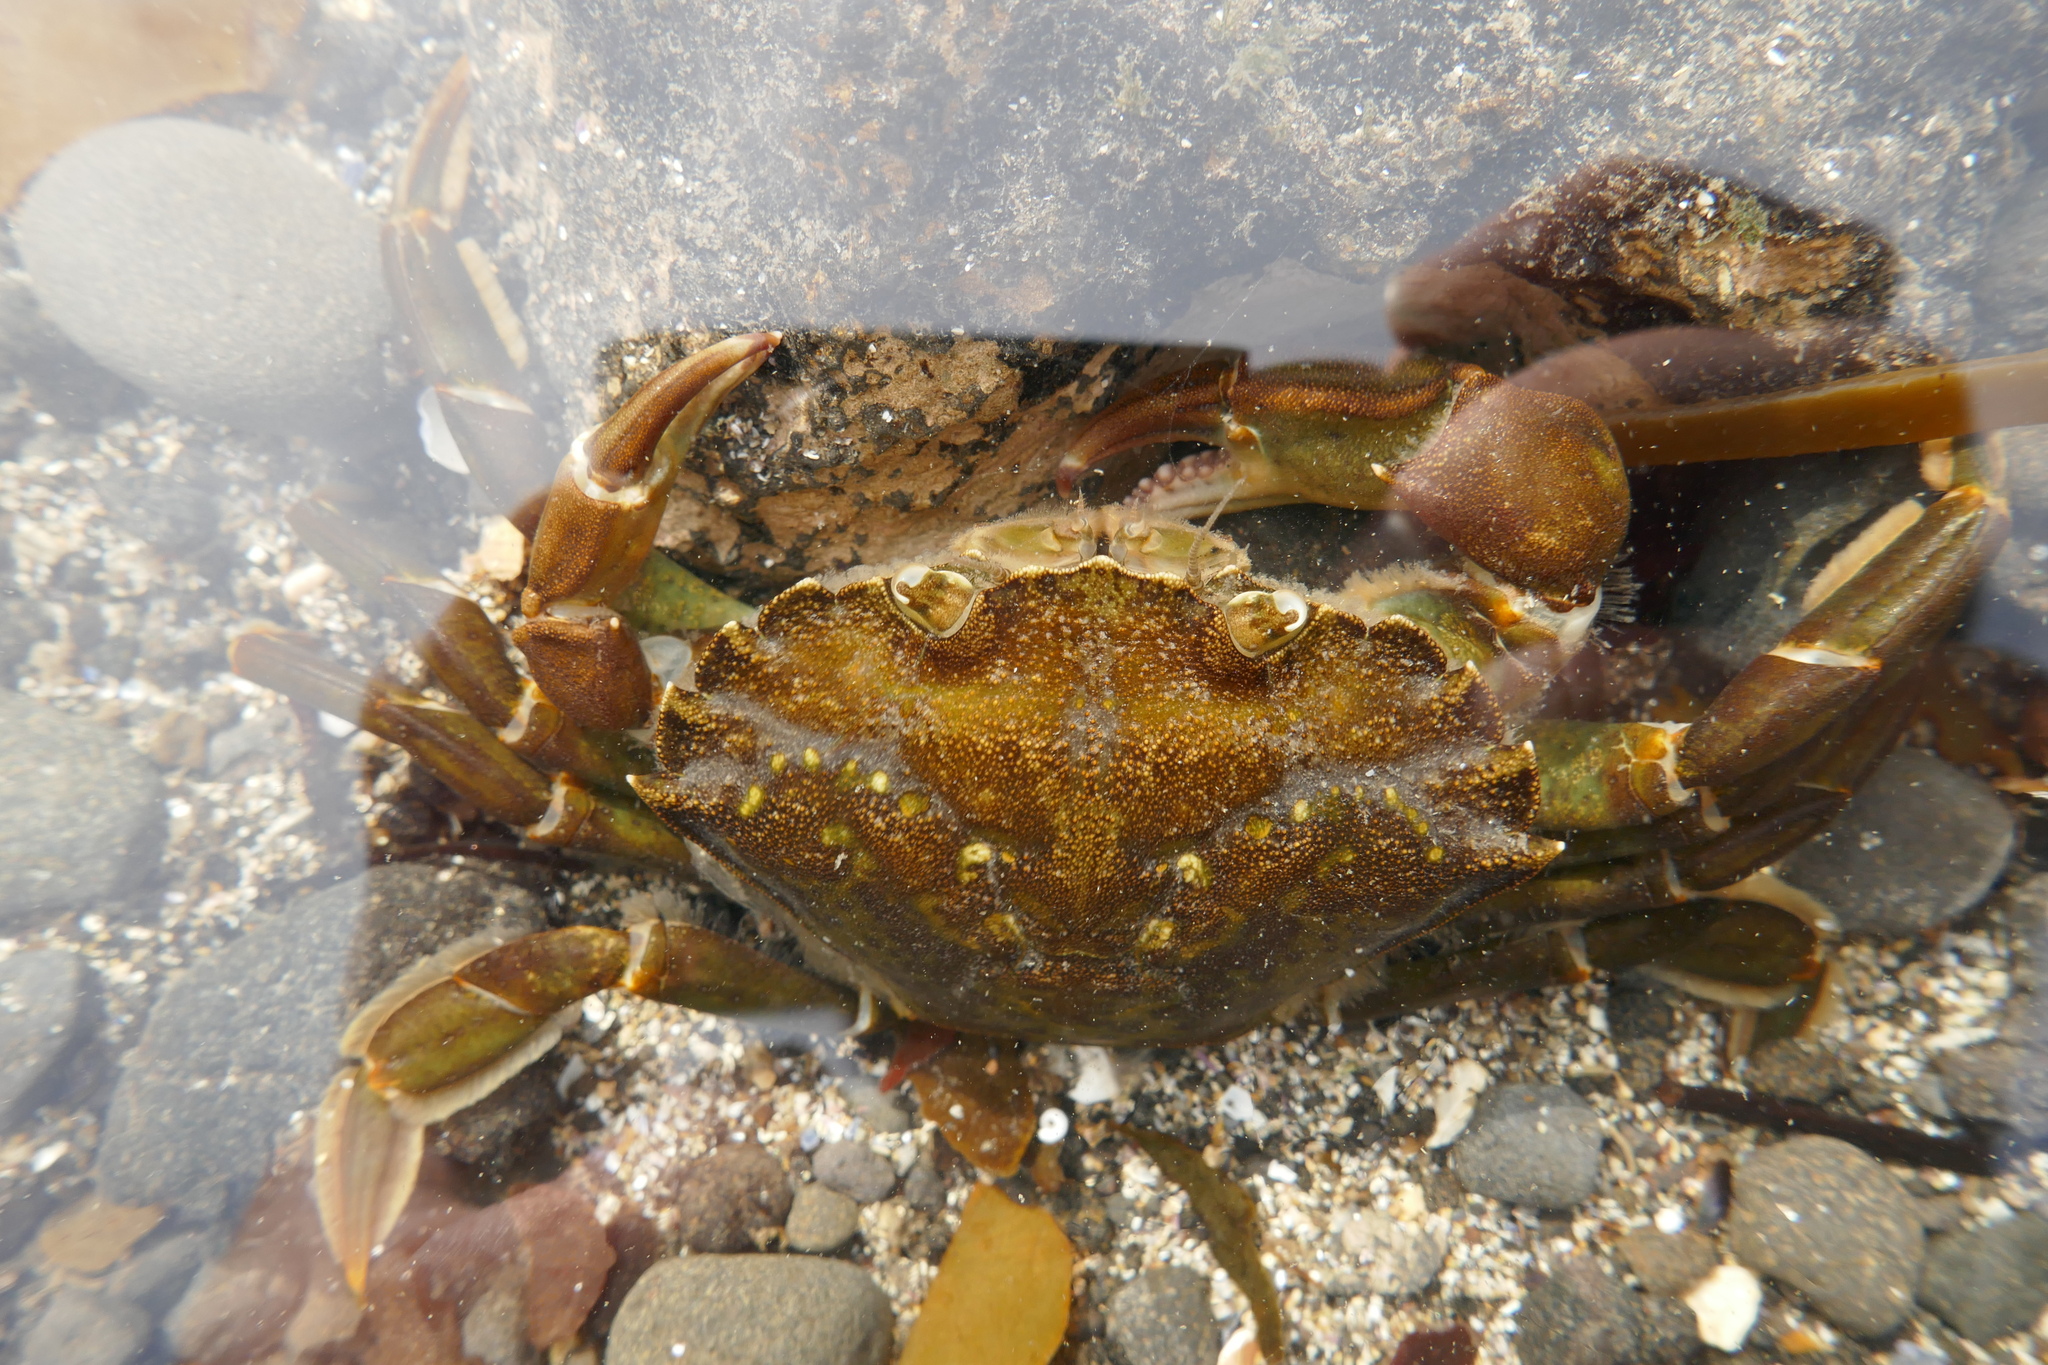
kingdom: Animalia
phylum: Arthropoda
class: Malacostraca
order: Decapoda
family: Carcinidae
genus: Carcinus
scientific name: Carcinus maenas
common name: European green crab
